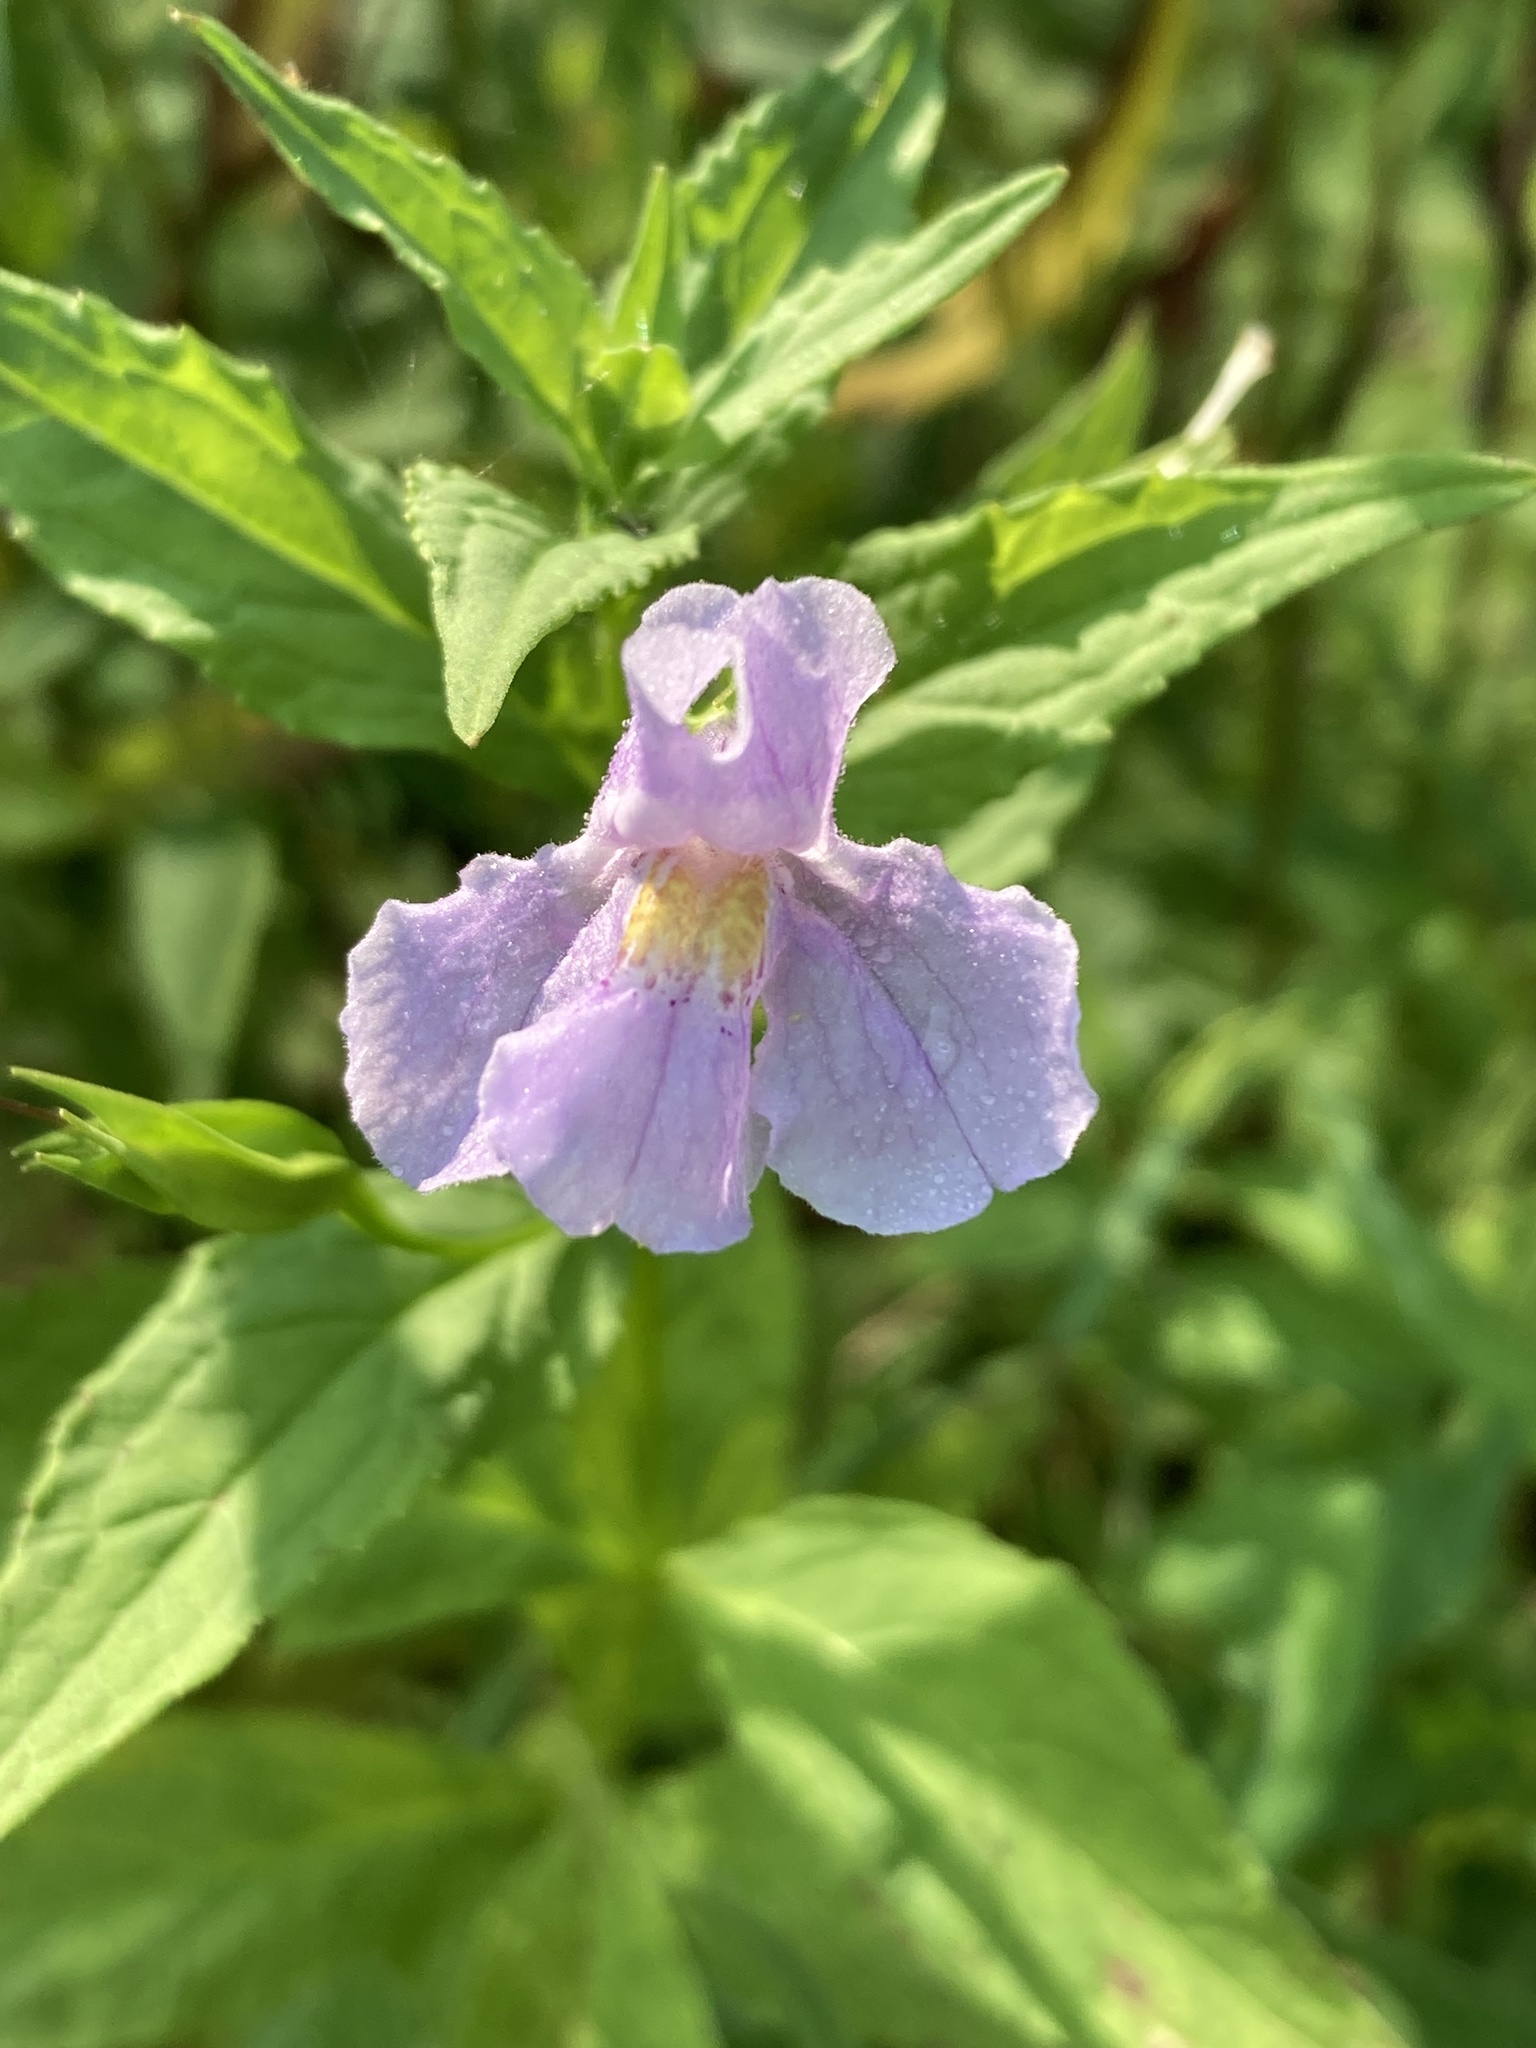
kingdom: Plantae
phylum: Tracheophyta
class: Magnoliopsida
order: Lamiales
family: Phrymaceae
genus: Mimulus
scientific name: Mimulus ringens
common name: Allegheny monkeyflower
